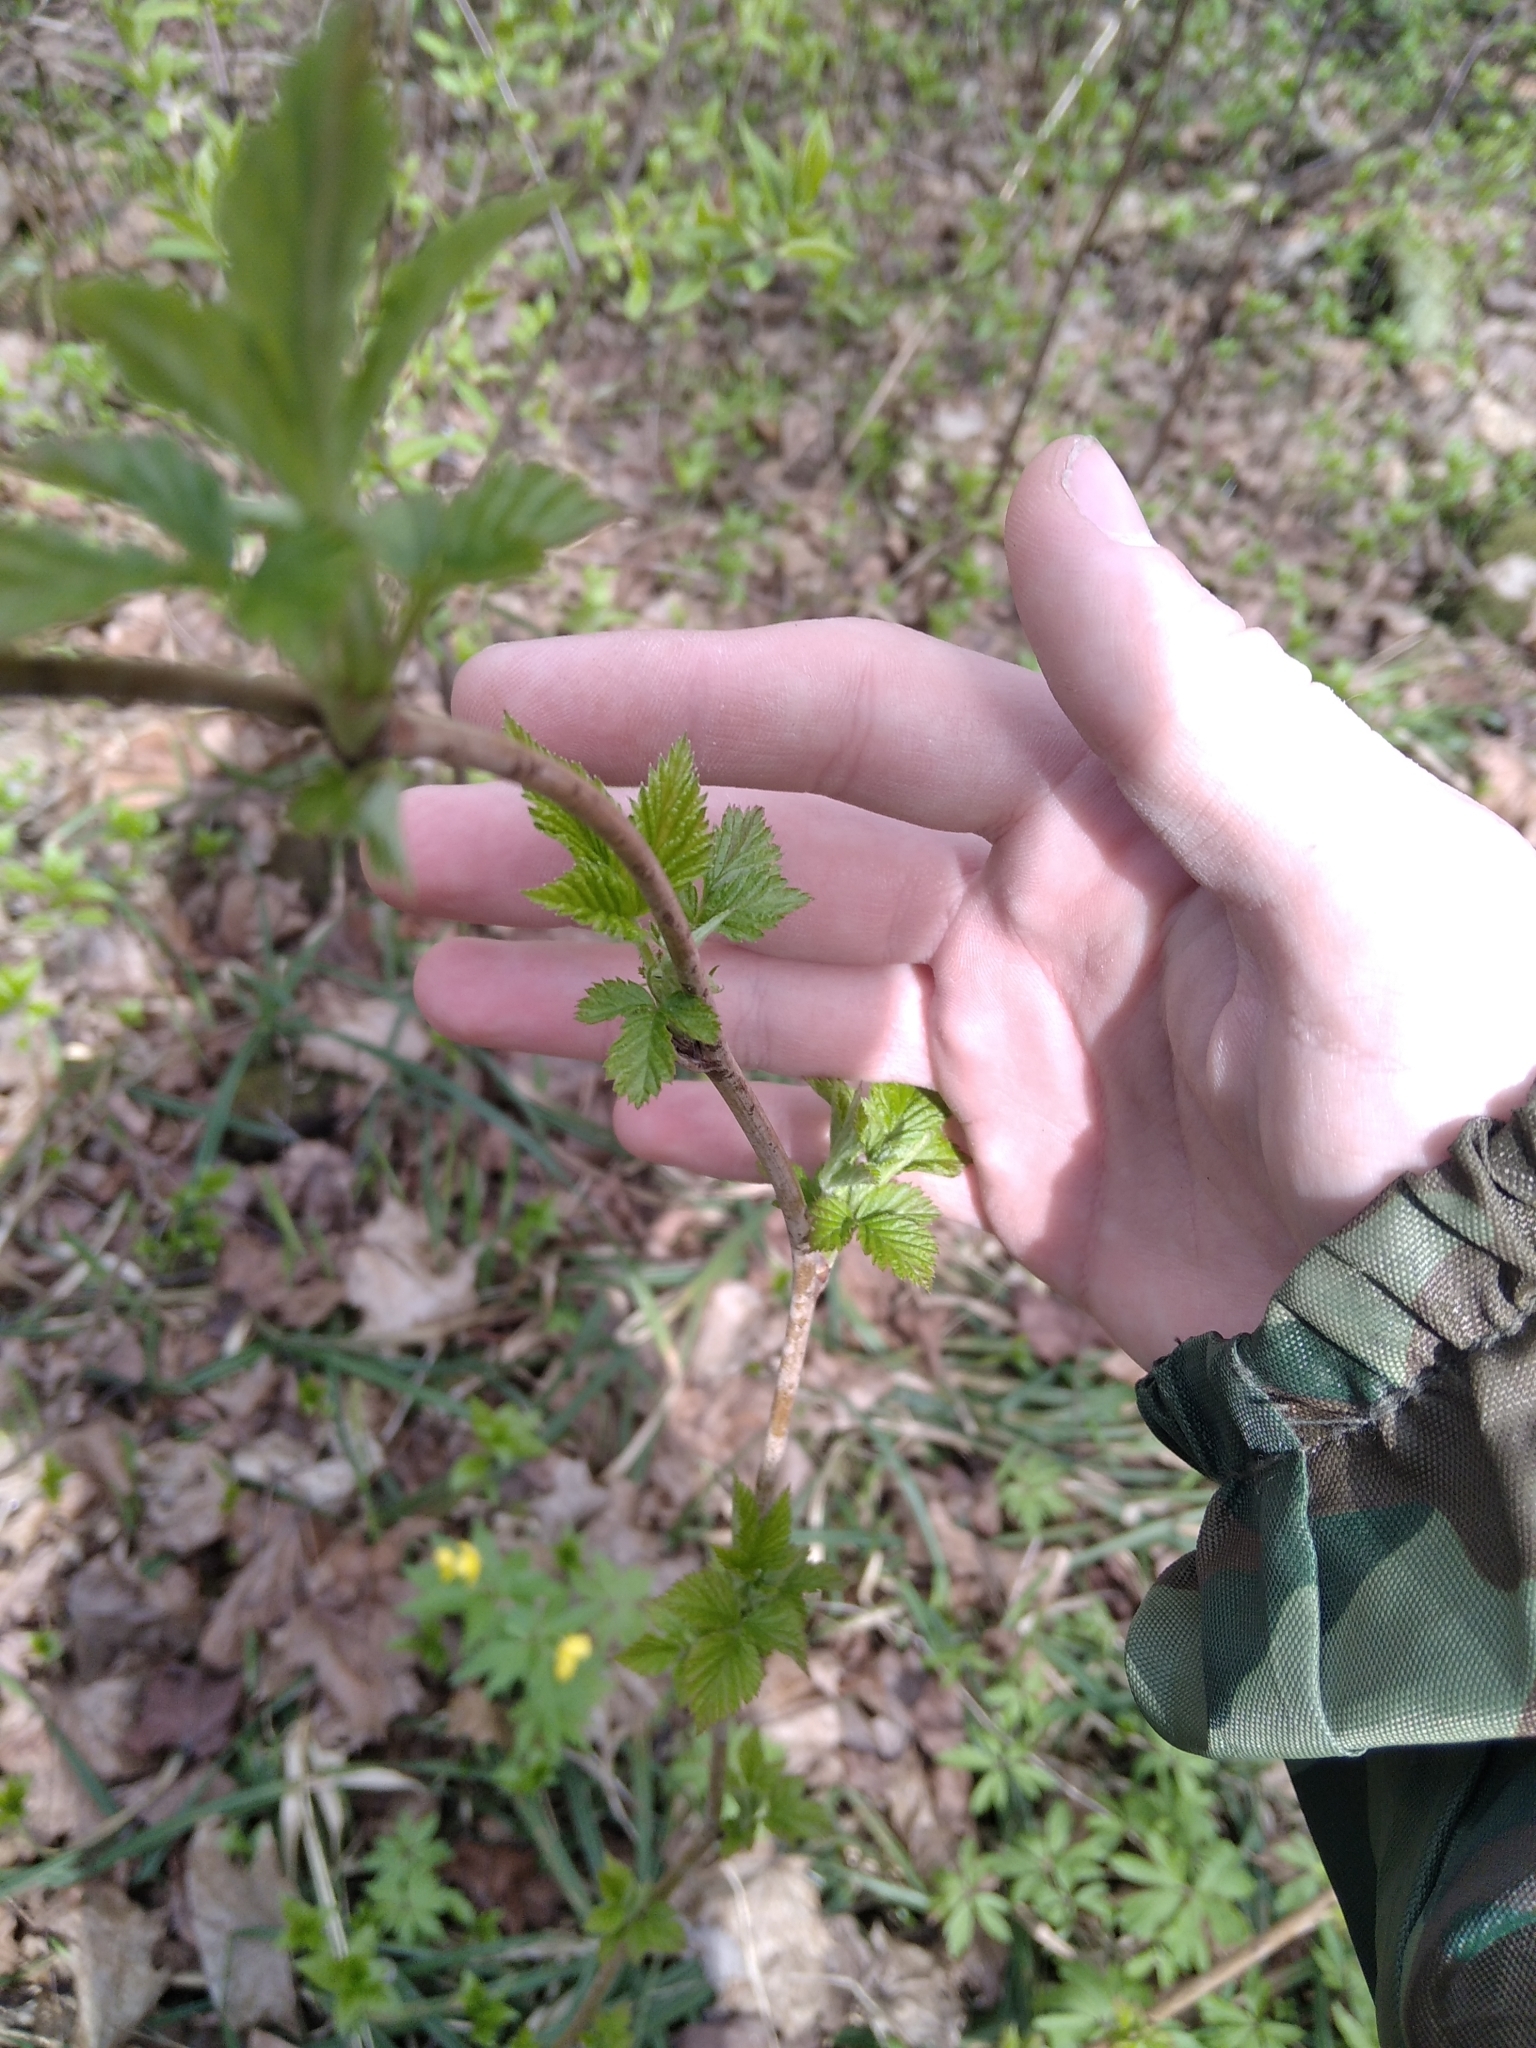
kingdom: Plantae
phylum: Tracheophyta
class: Magnoliopsida
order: Rosales
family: Rosaceae
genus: Rubus
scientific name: Rubus idaeus
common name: Raspberry
